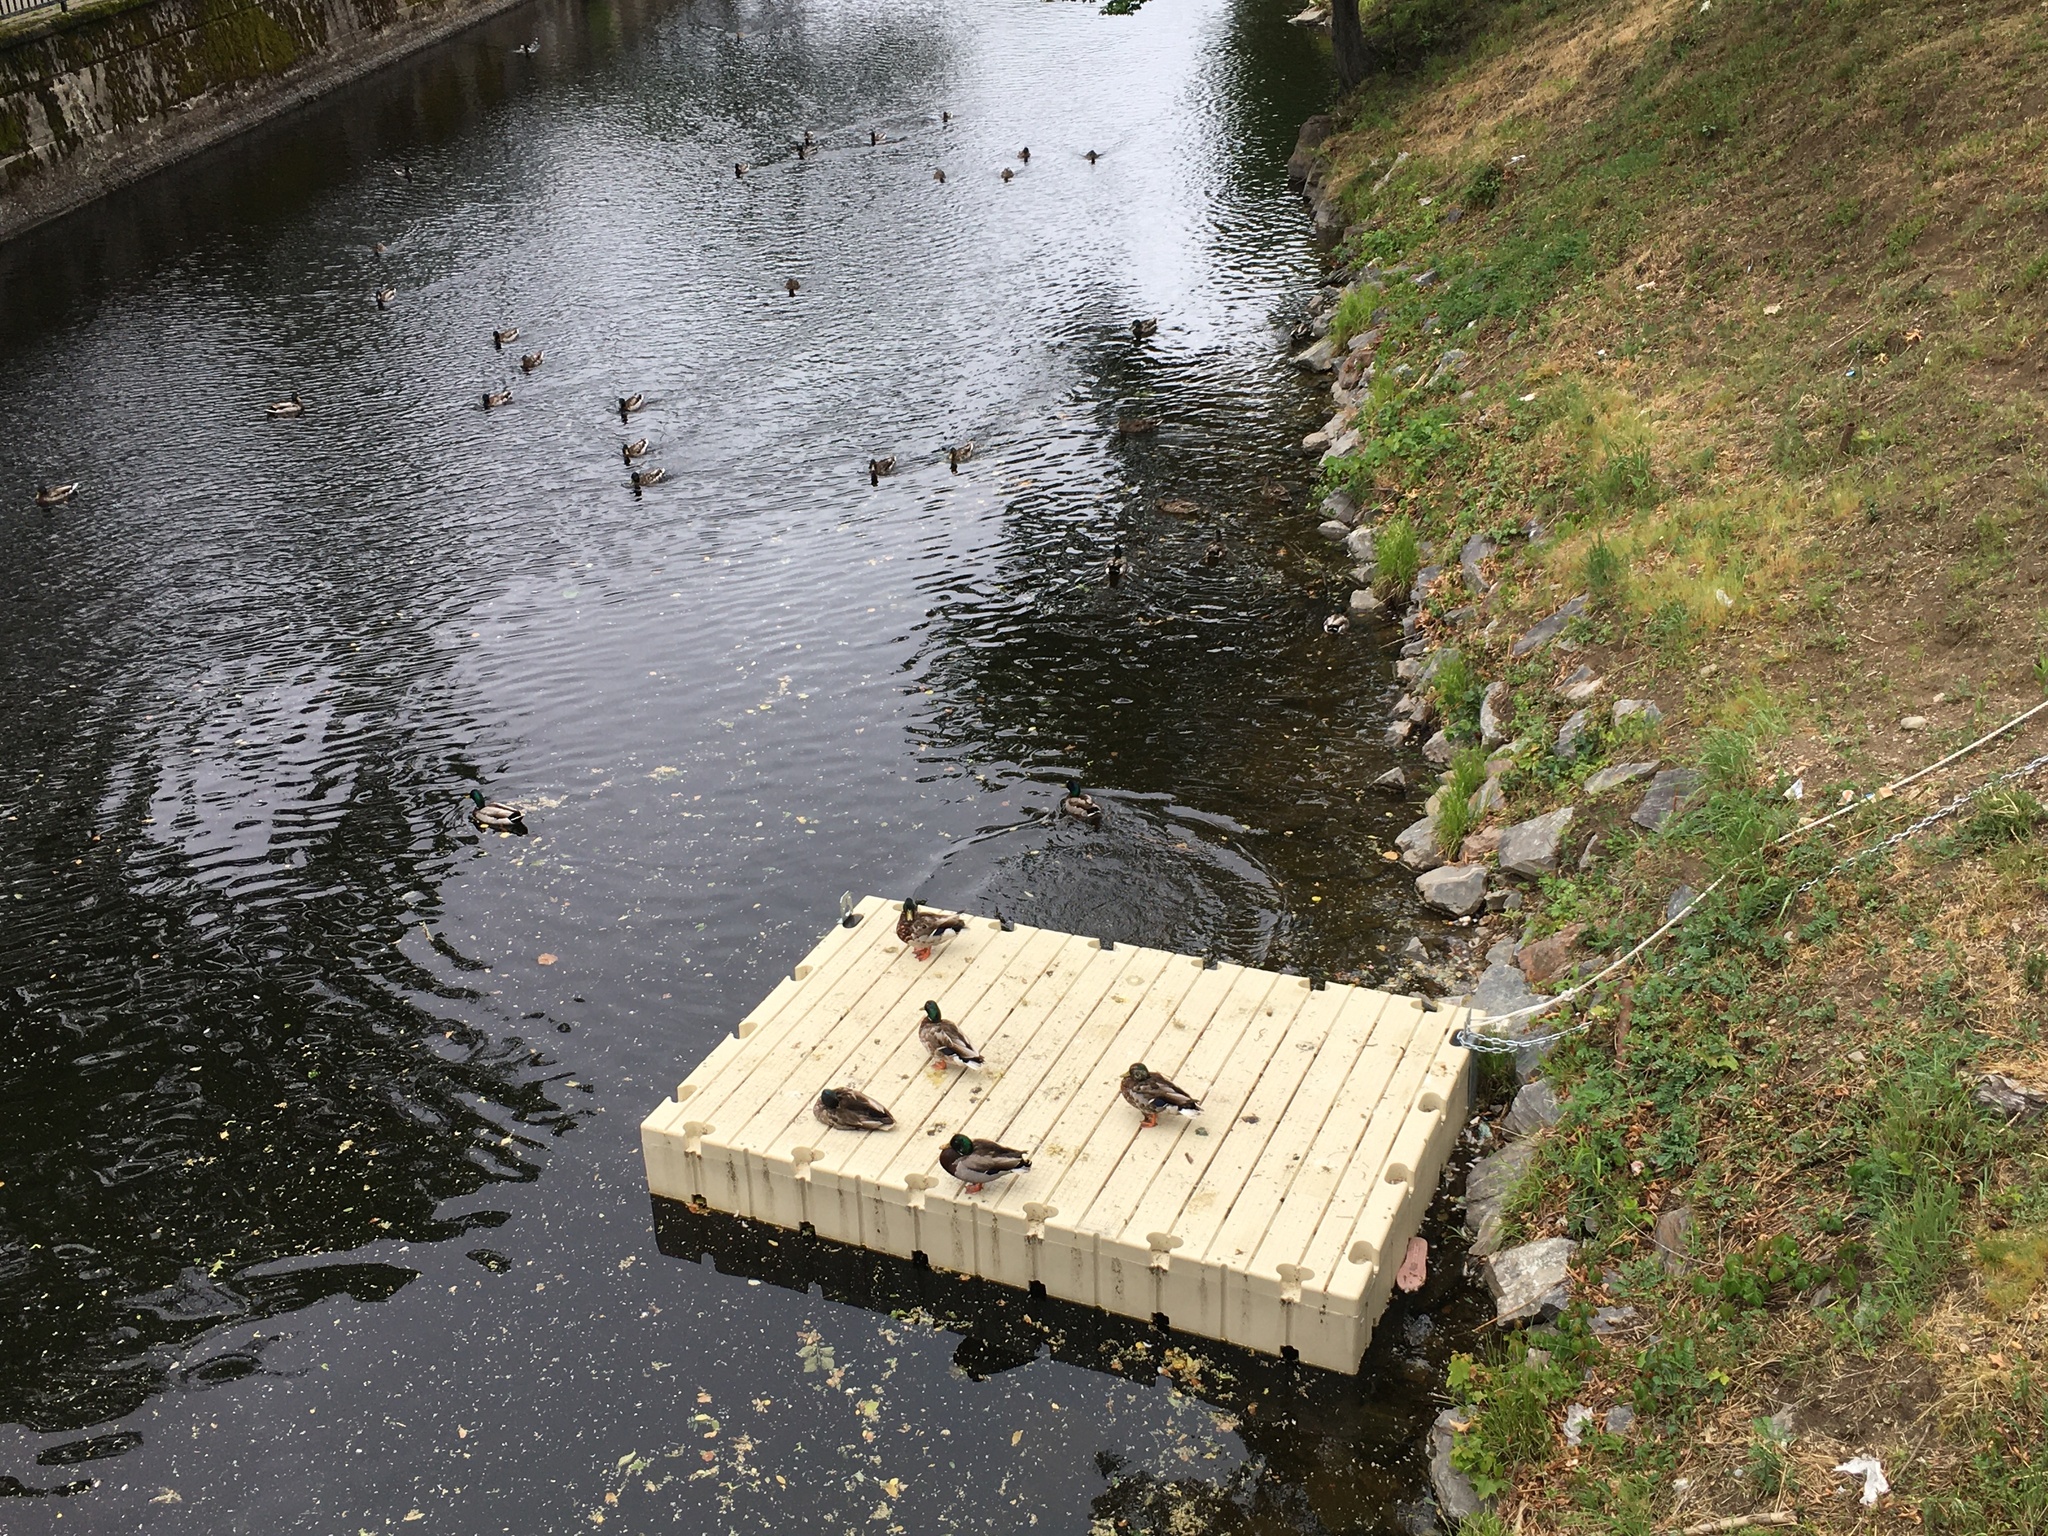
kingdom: Animalia
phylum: Chordata
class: Aves
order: Anseriformes
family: Anatidae
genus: Anas
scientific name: Anas platyrhynchos
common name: Mallard
